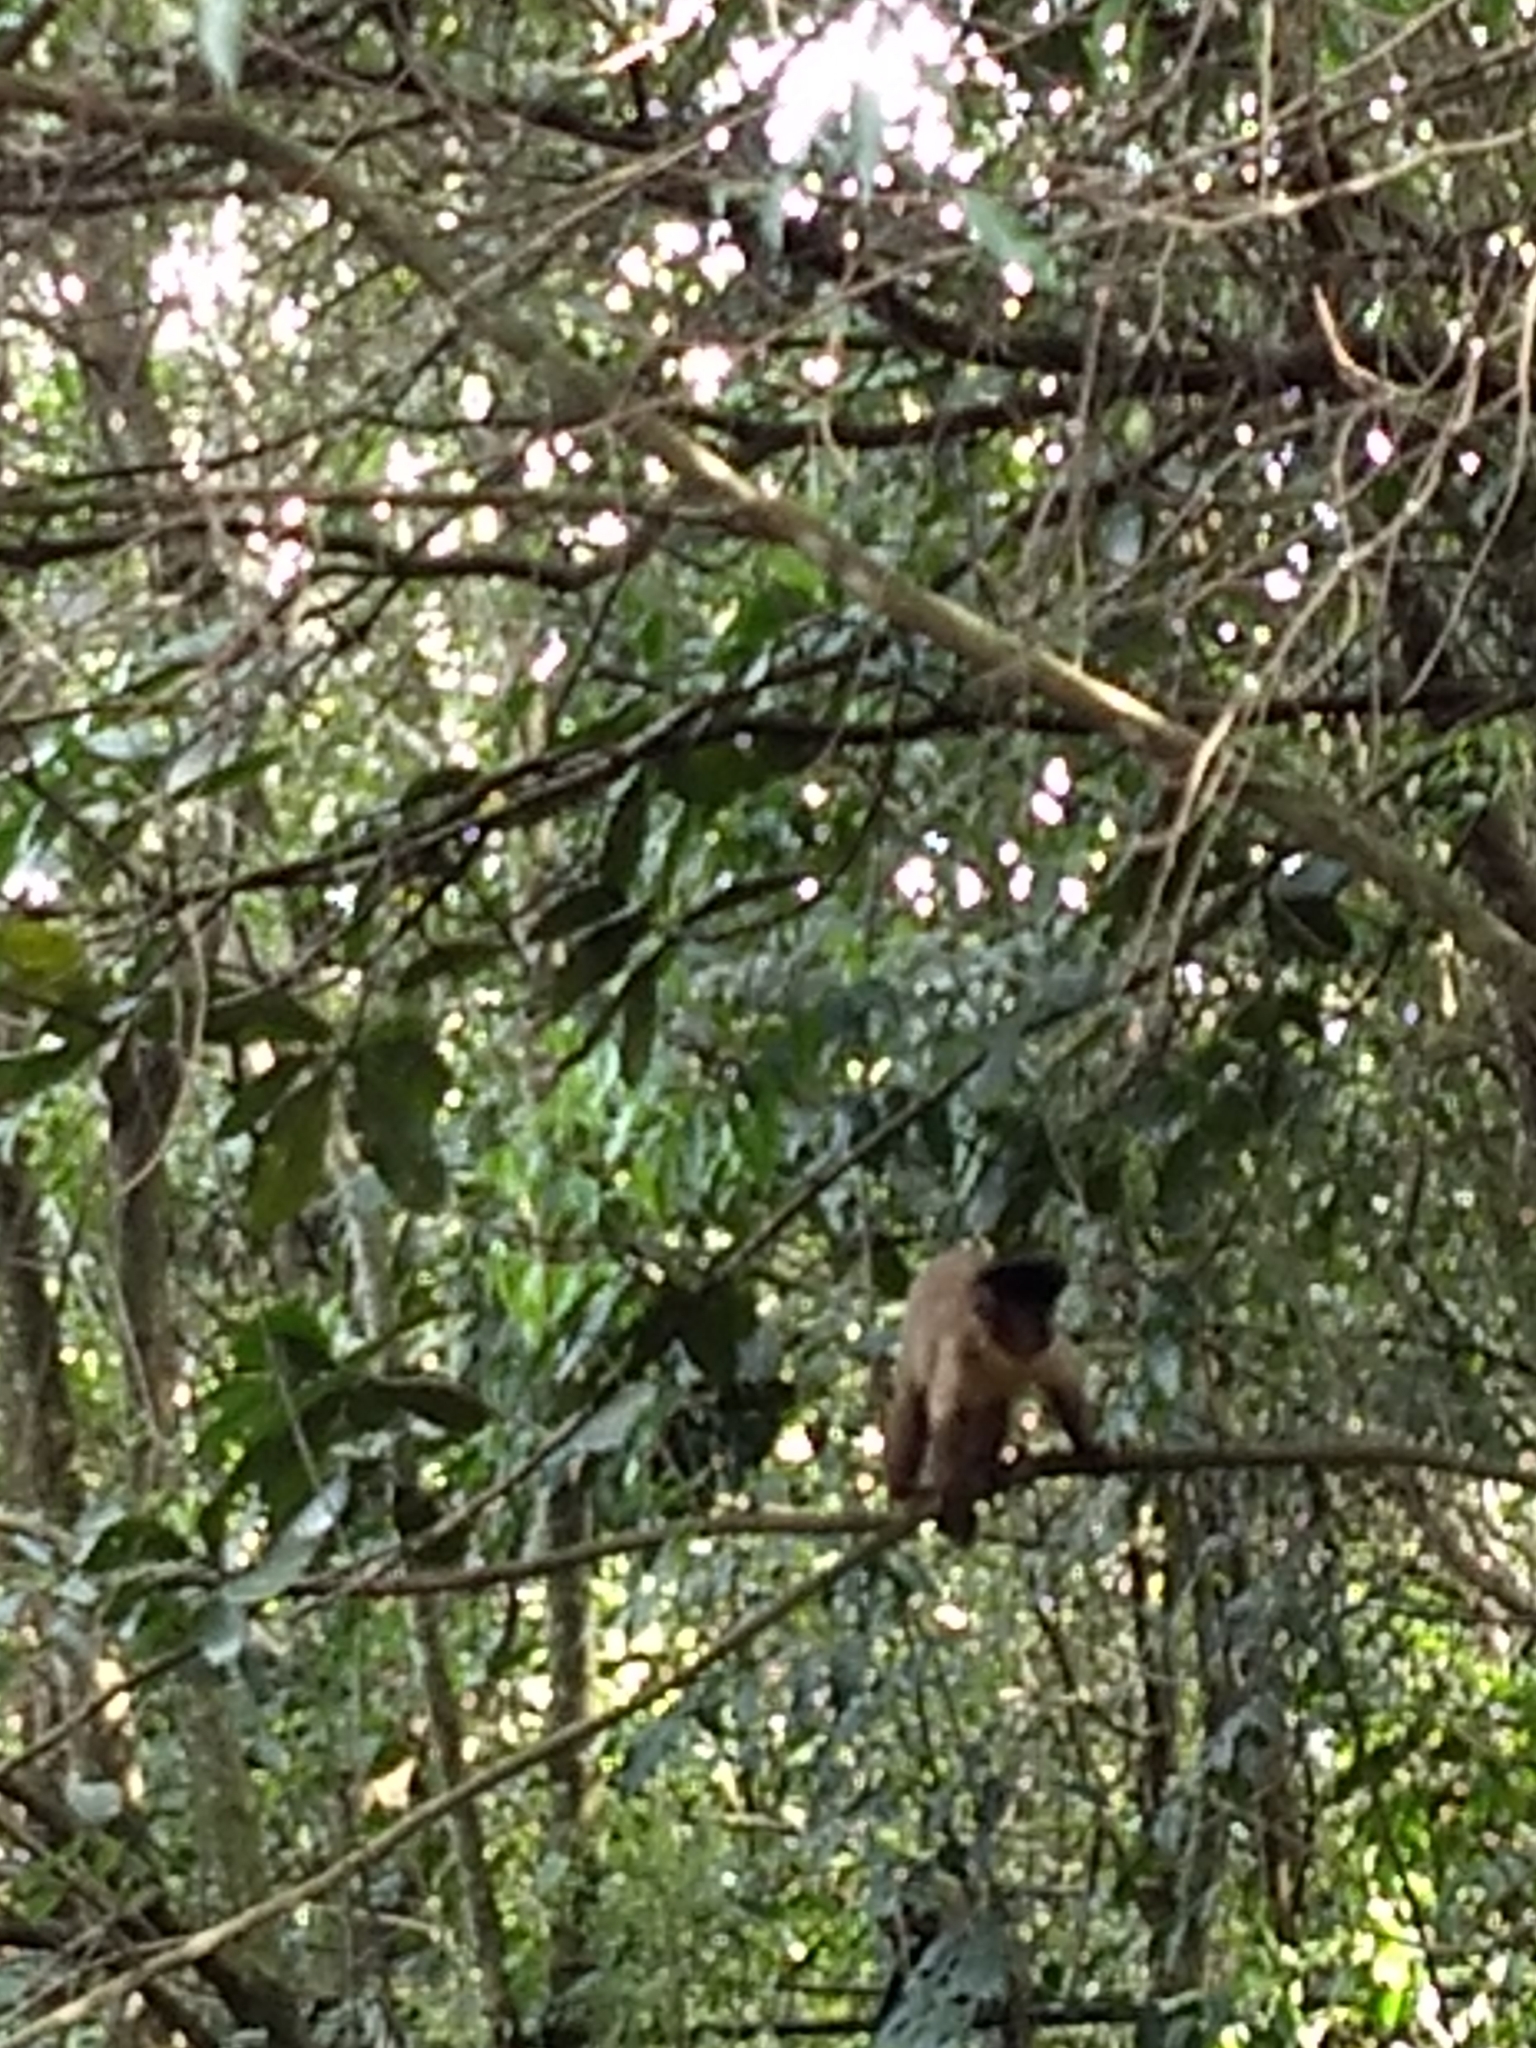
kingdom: Animalia
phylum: Chordata
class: Mammalia
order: Primates
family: Cebidae
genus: Sapajus
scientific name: Sapajus nigritus
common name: Black capuchin
